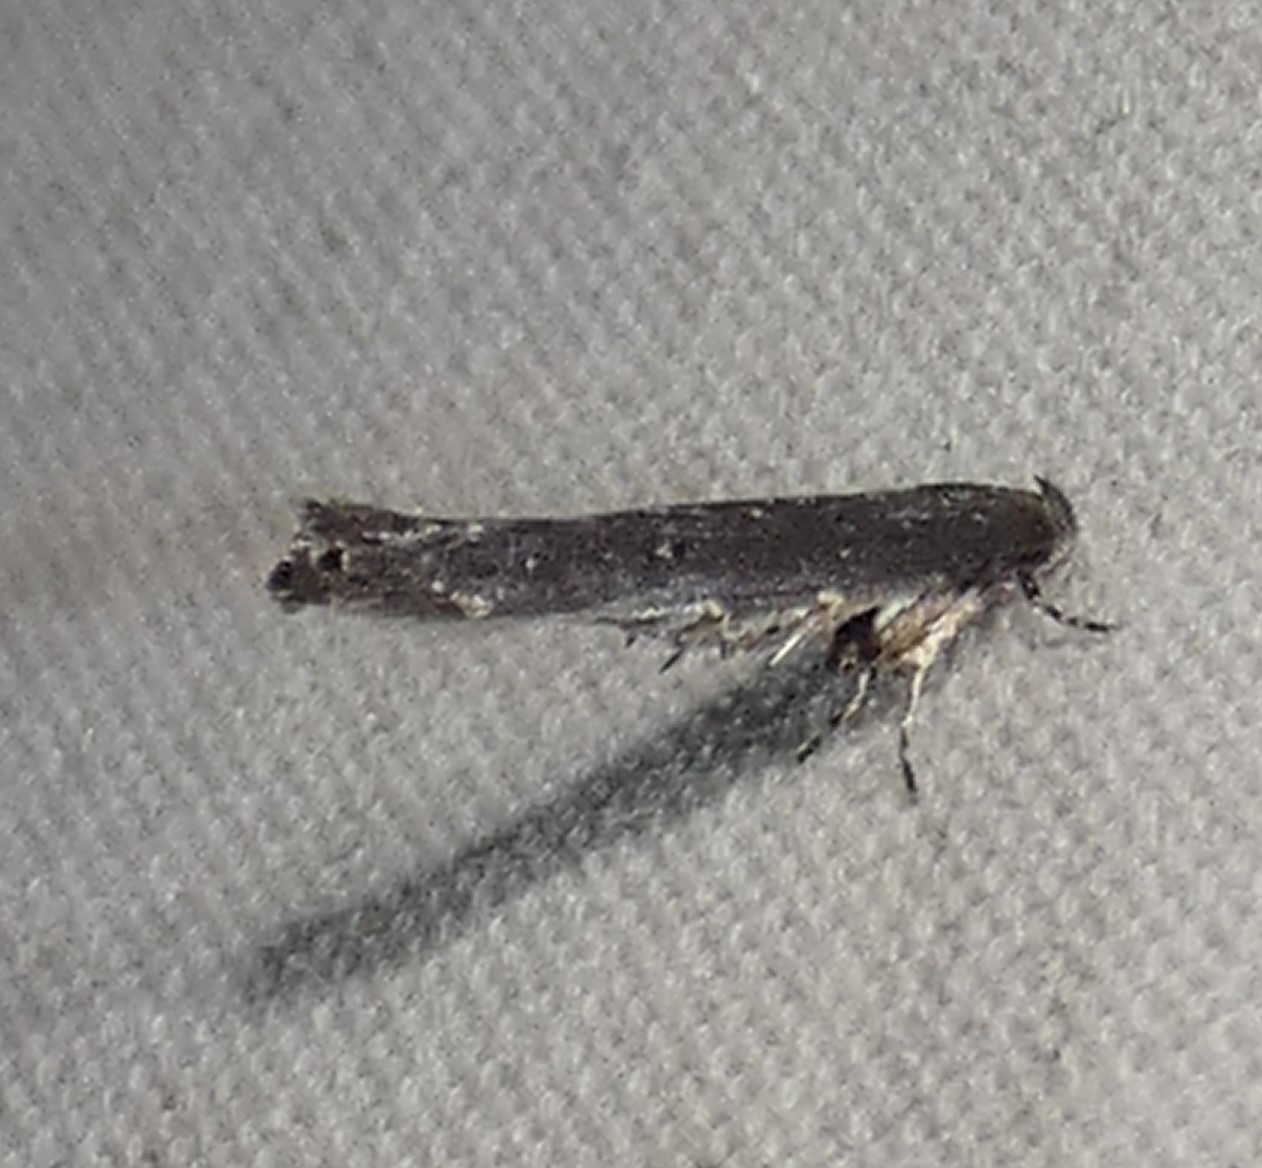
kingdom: Animalia
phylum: Arthropoda
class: Insecta
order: Lepidoptera
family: Cosmopterigidae
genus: Ithome
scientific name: Ithome erransella
